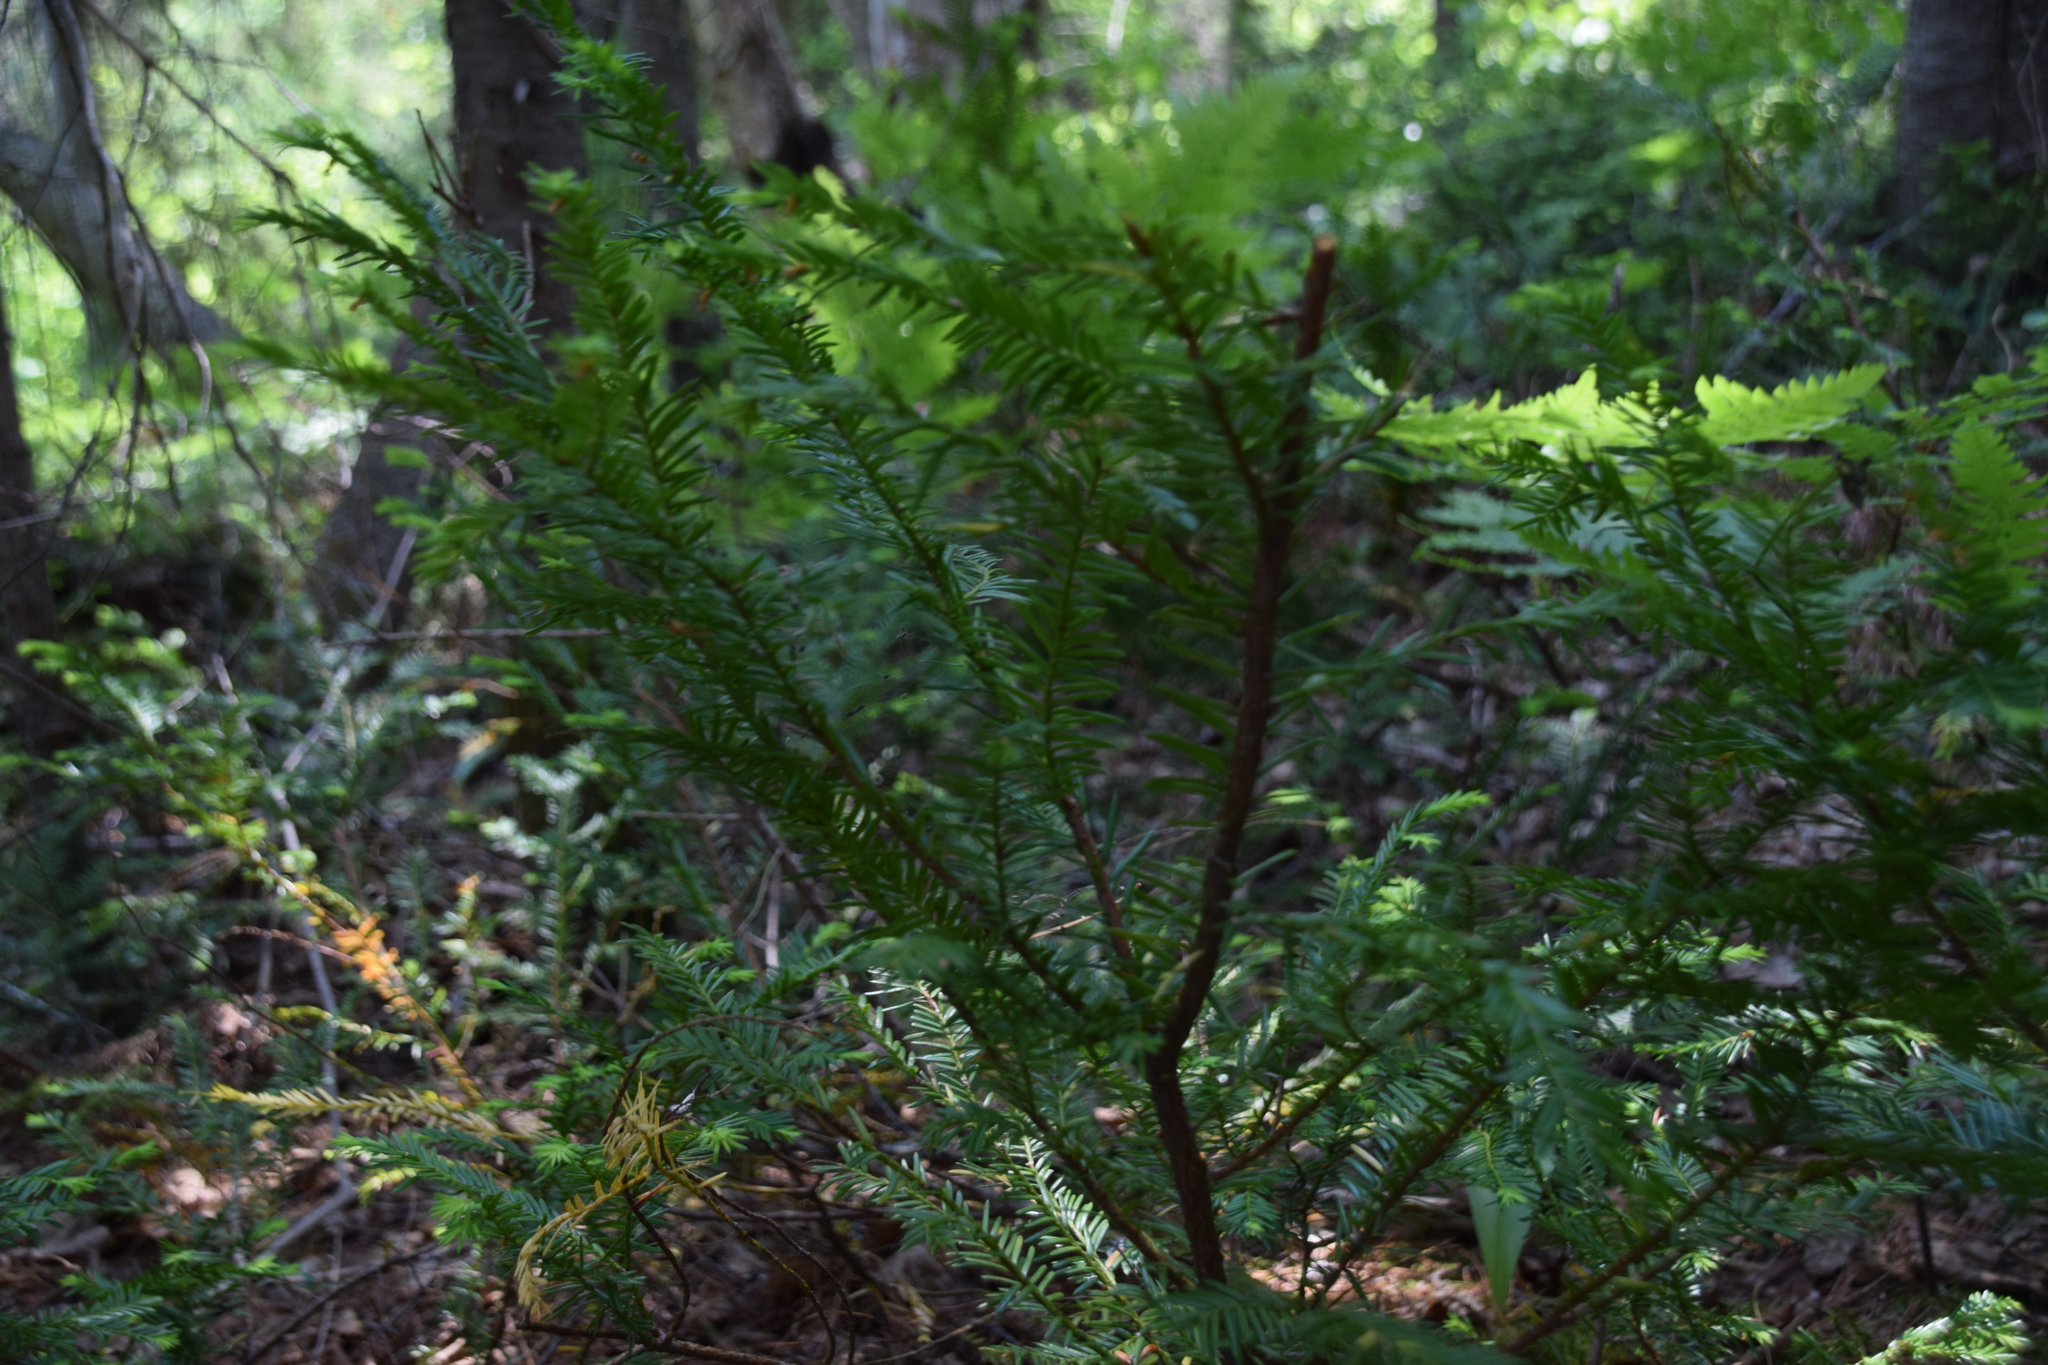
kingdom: Plantae
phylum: Tracheophyta
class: Pinopsida
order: Pinales
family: Taxaceae
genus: Taxus
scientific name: Taxus canadensis
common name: American yew
